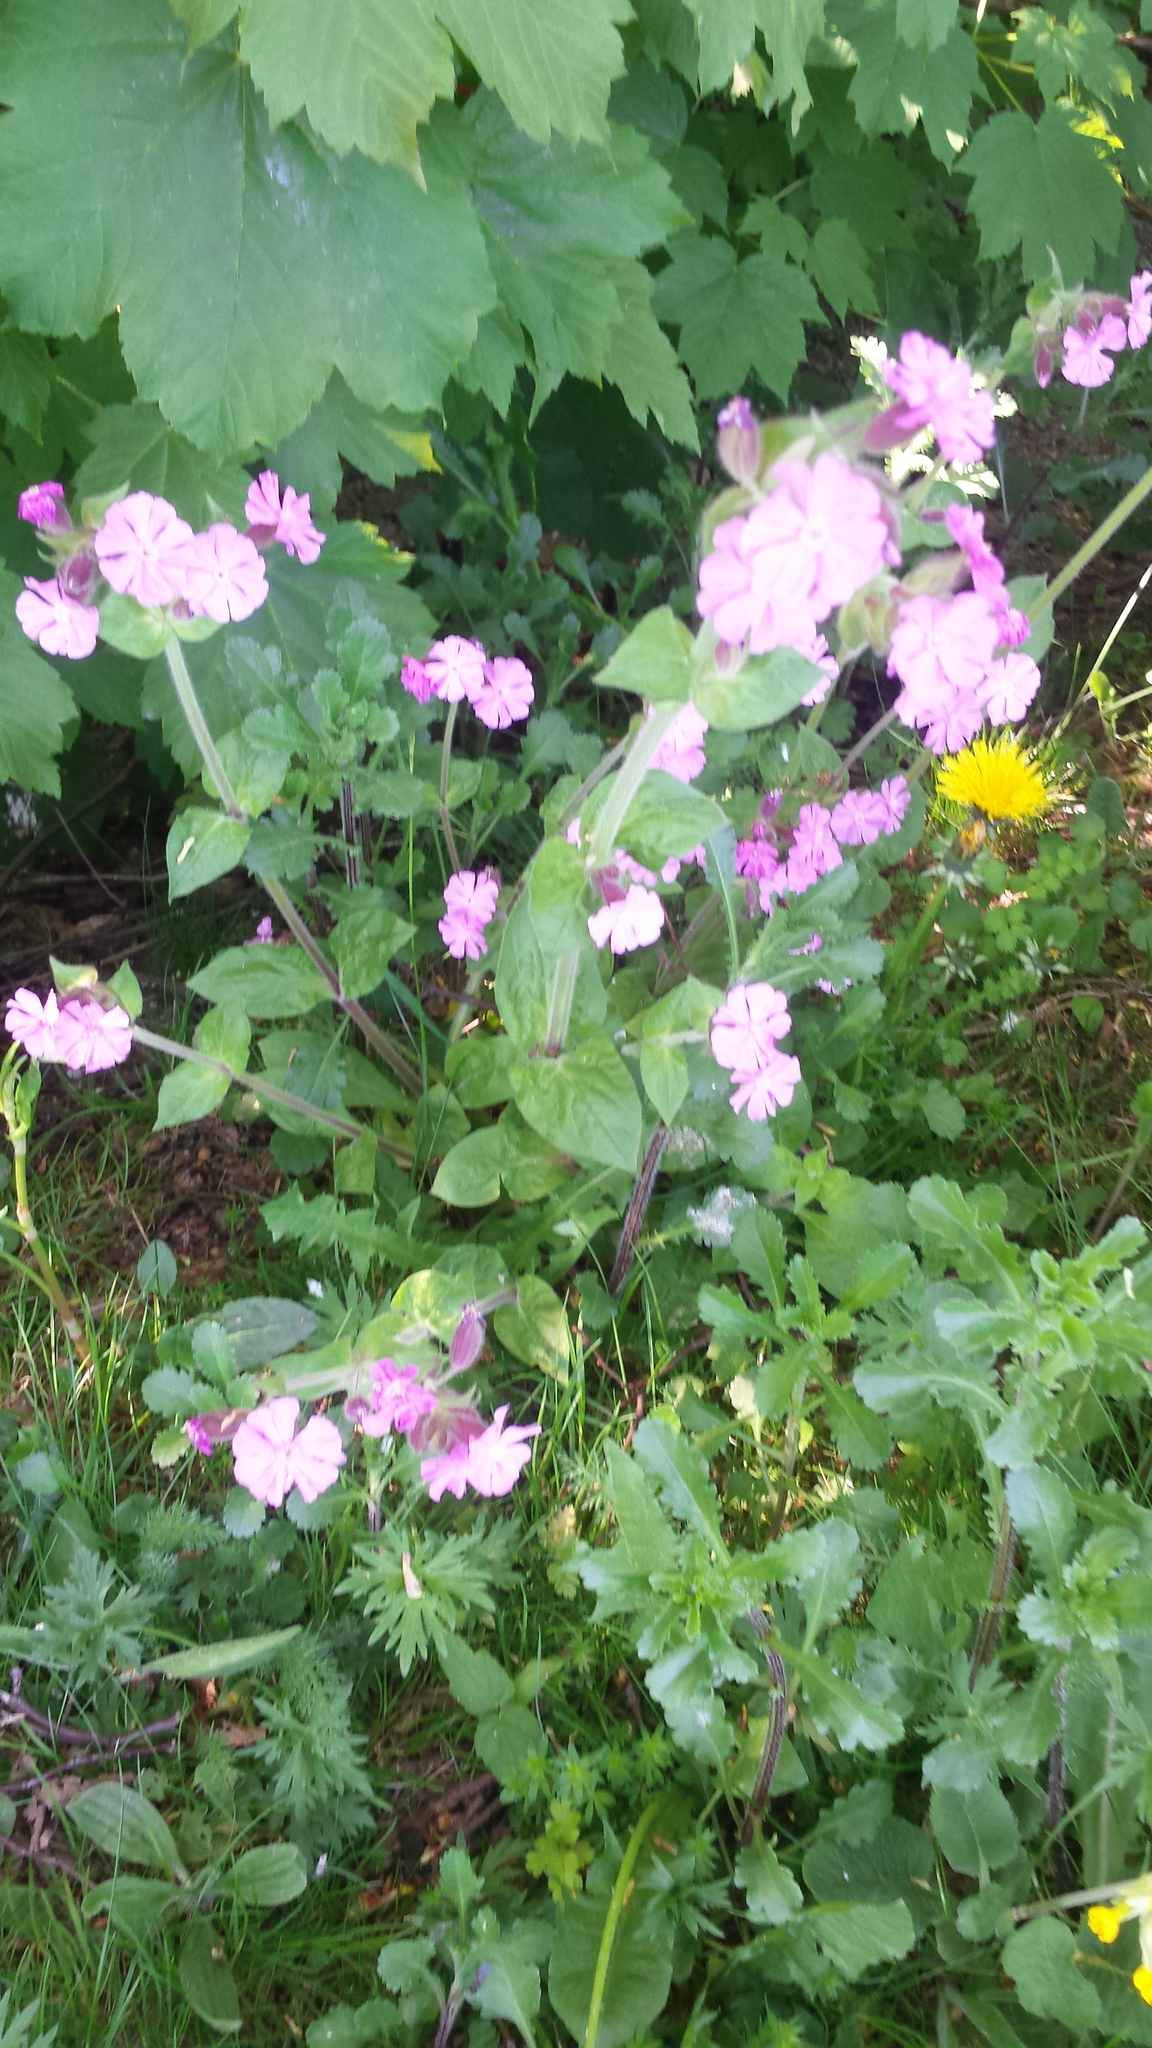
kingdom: Plantae
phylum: Tracheophyta
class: Magnoliopsida
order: Caryophyllales
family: Caryophyllaceae
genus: Silene
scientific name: Silene dioica
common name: Red campion
